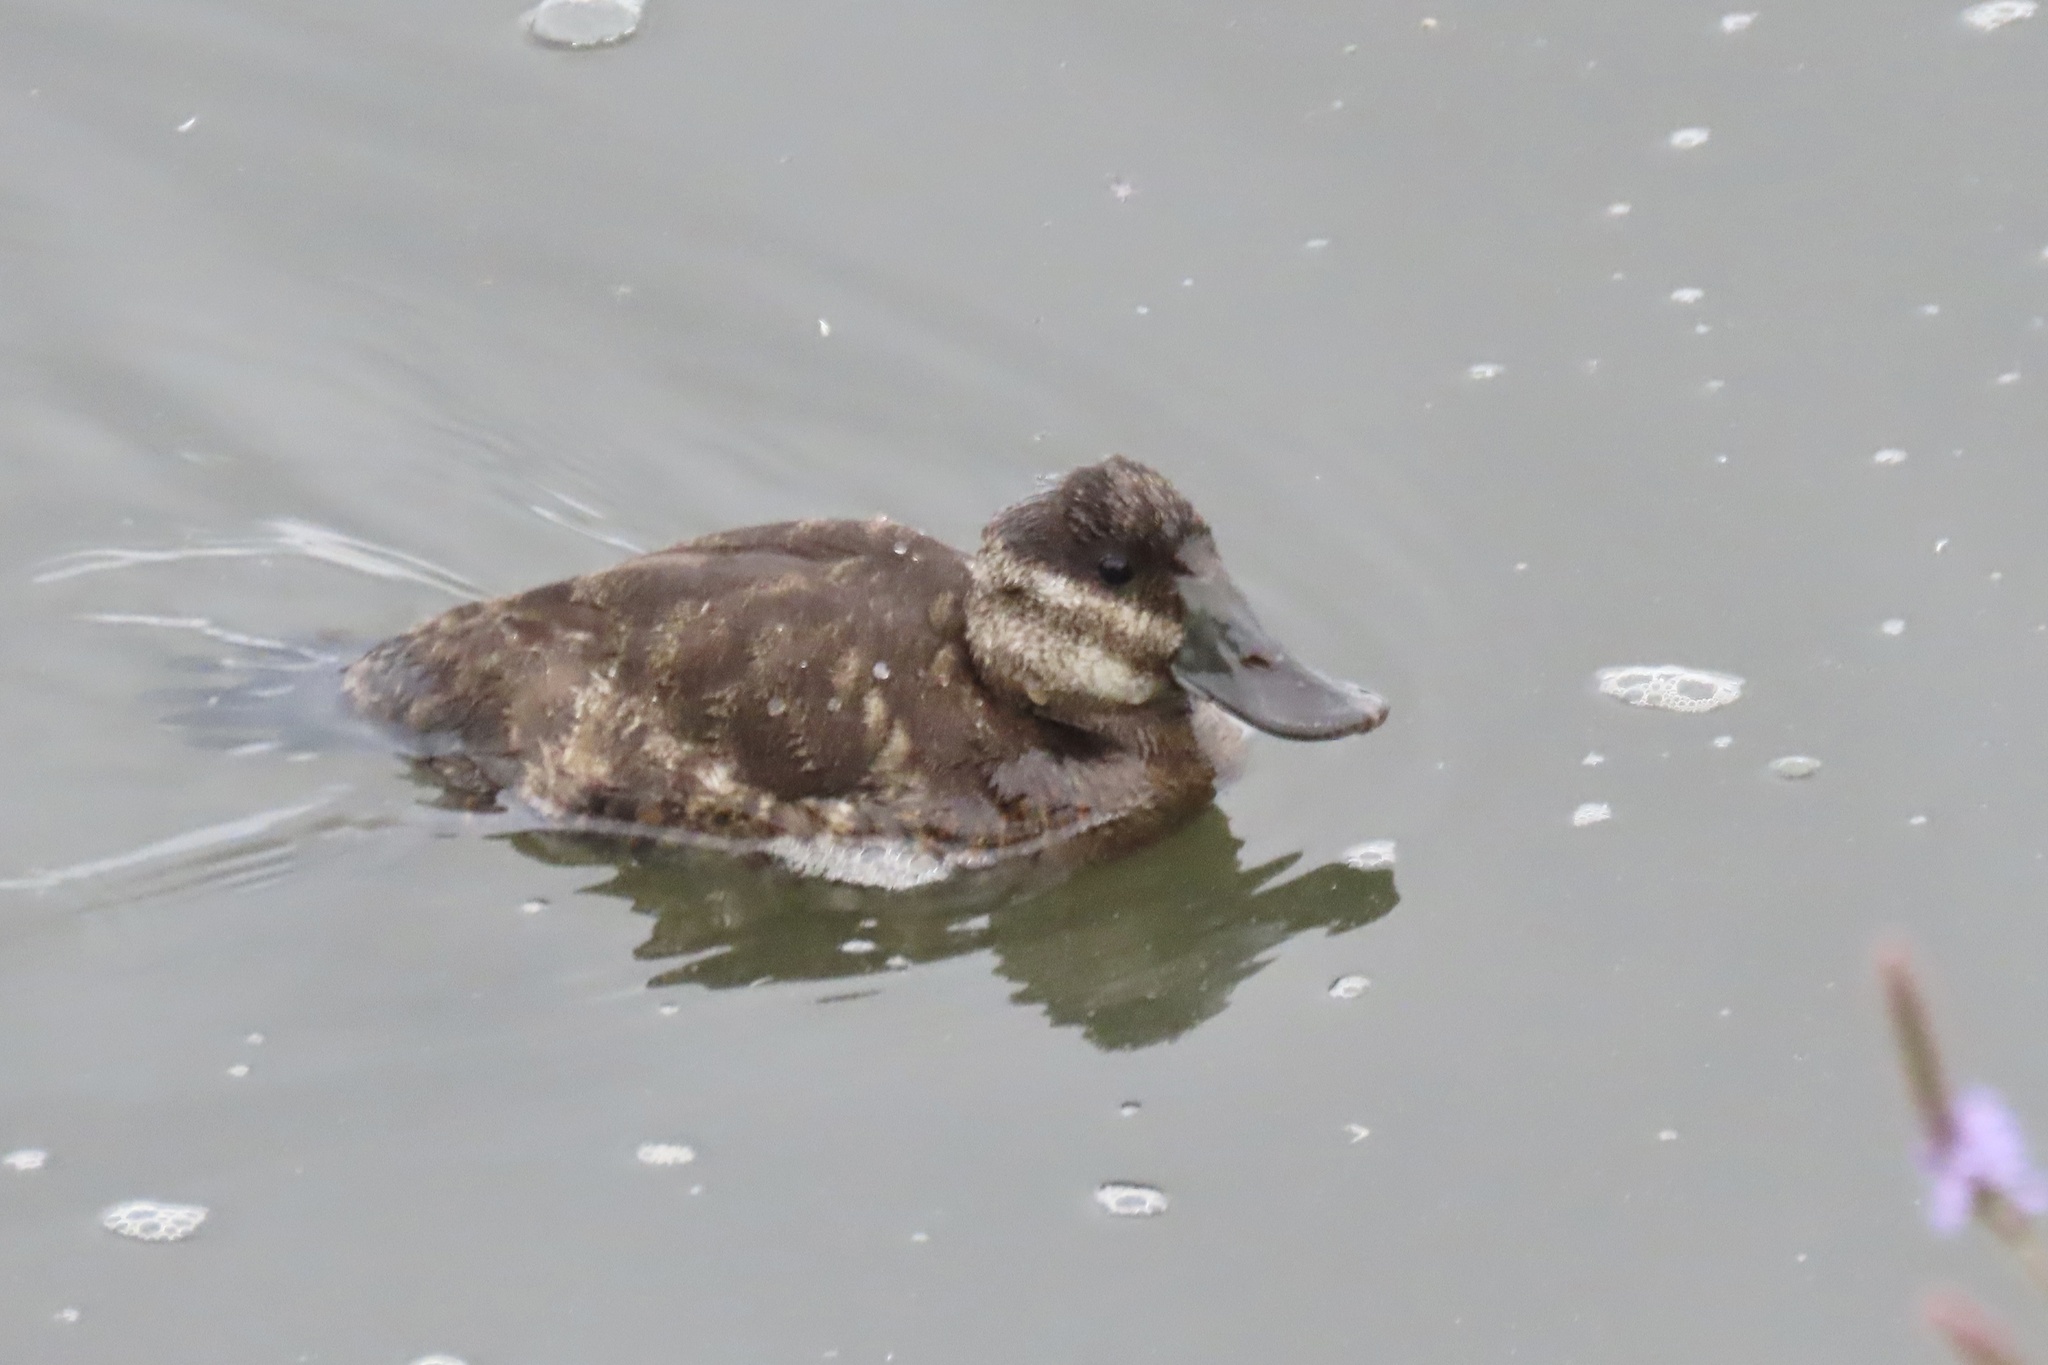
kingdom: Animalia
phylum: Chordata
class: Aves
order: Anseriformes
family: Anatidae
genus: Oxyura
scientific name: Oxyura jamaicensis
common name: Ruddy duck
